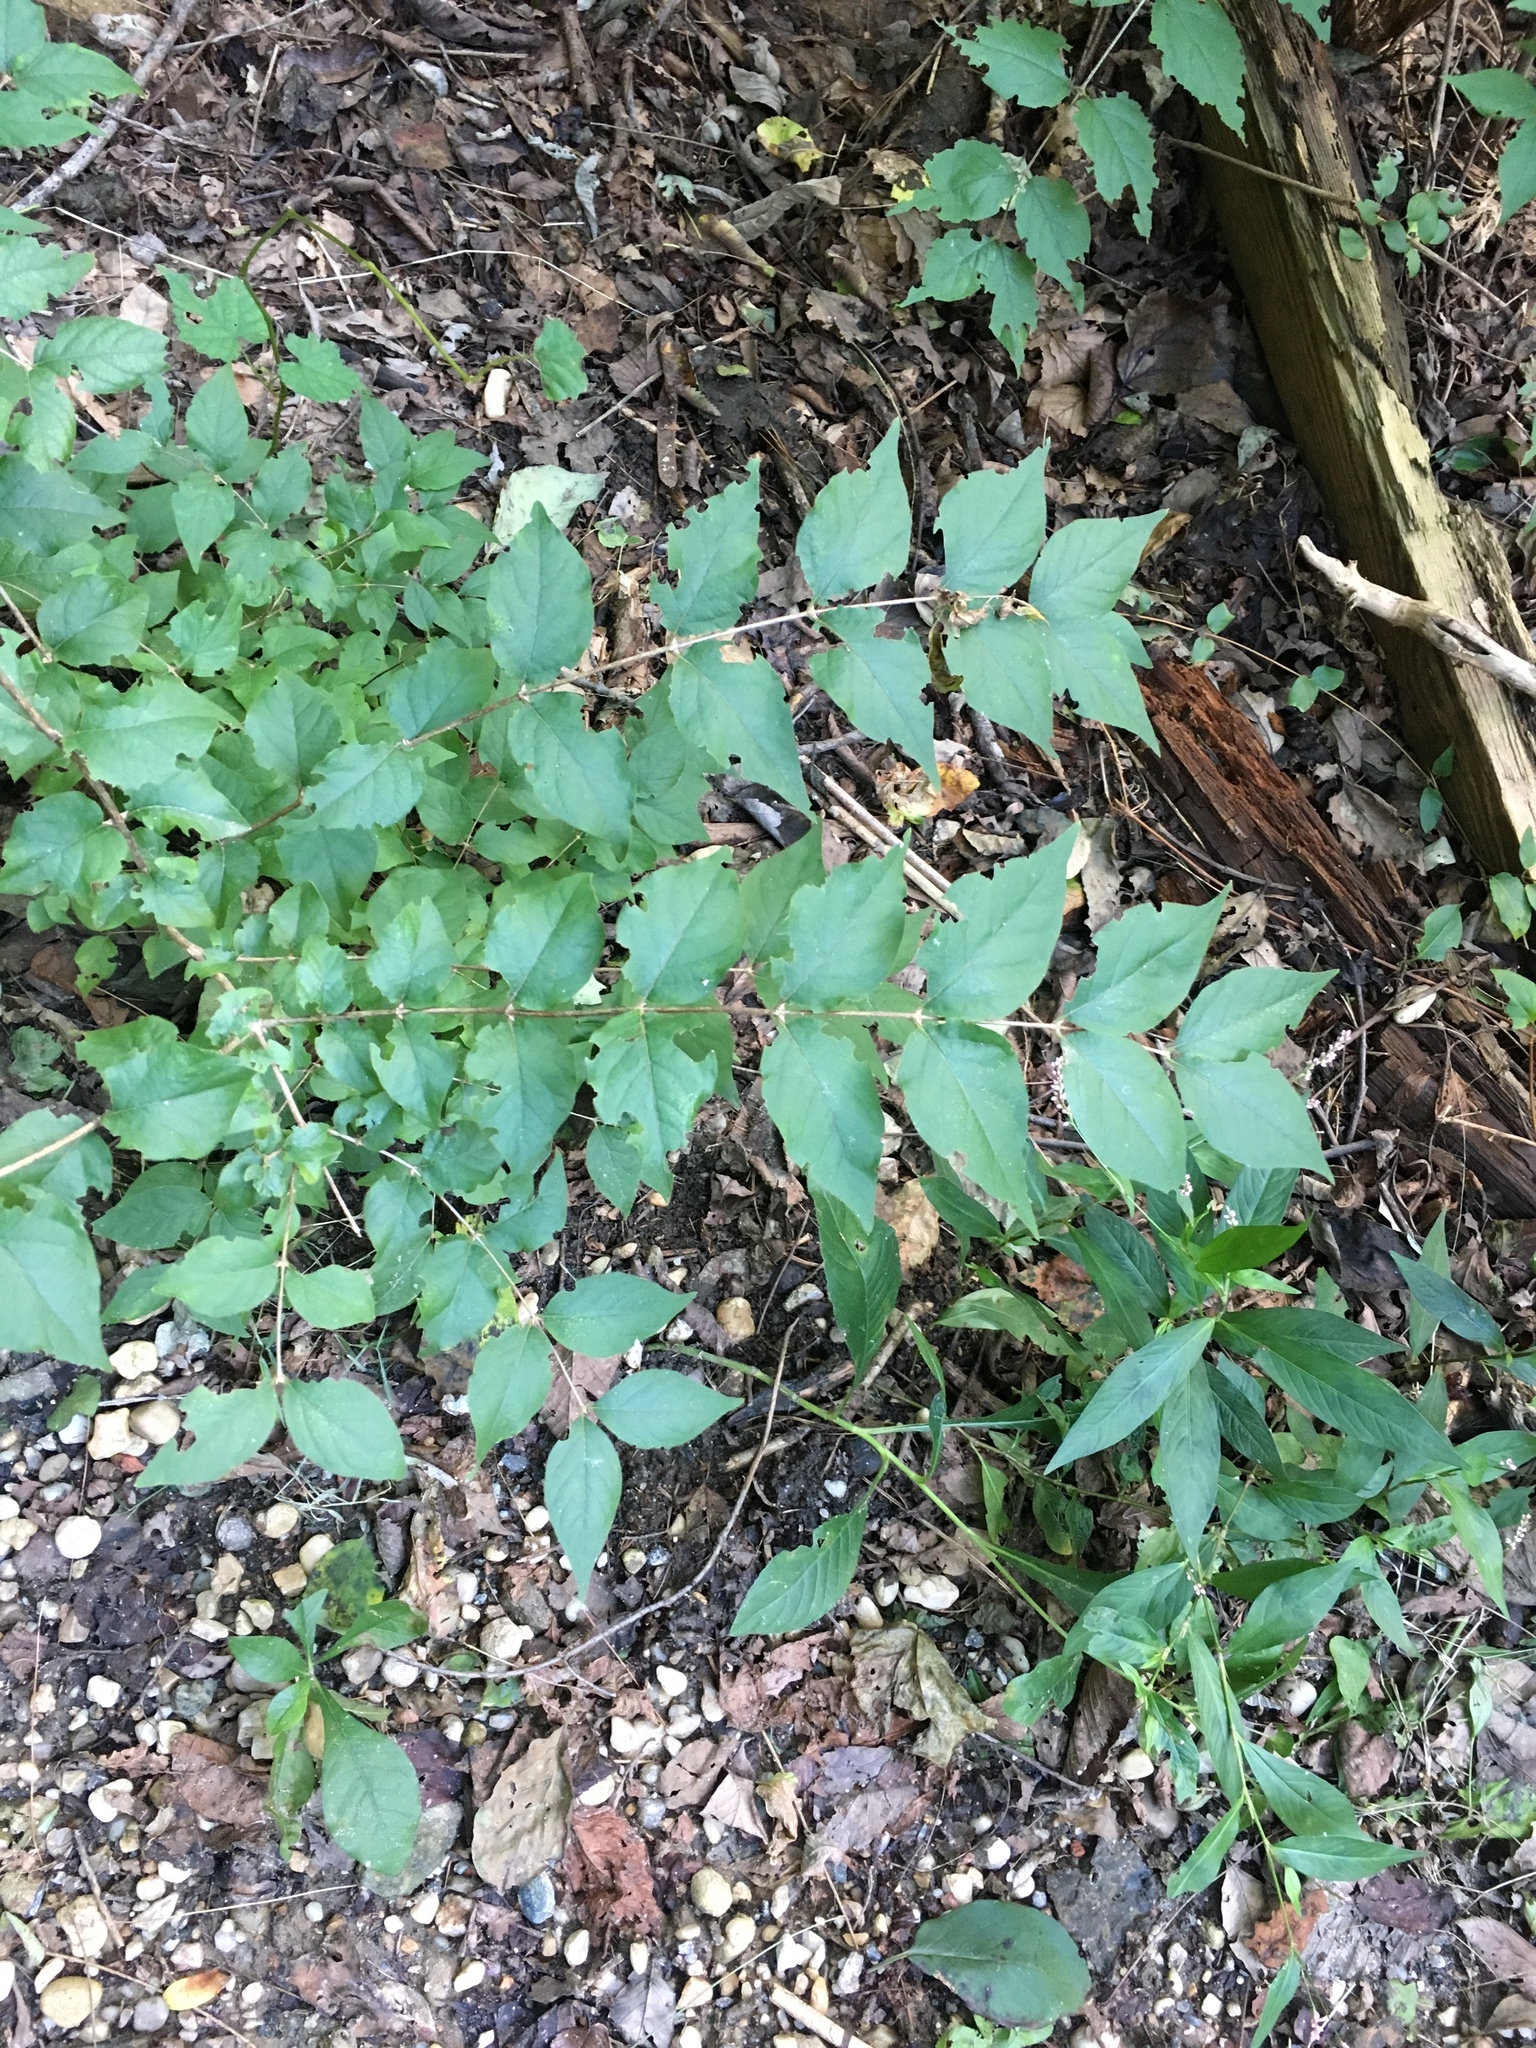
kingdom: Plantae
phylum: Tracheophyta
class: Magnoliopsida
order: Dipsacales
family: Caprifoliaceae
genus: Lonicera
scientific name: Lonicera maackii
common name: Amur honeysuckle
